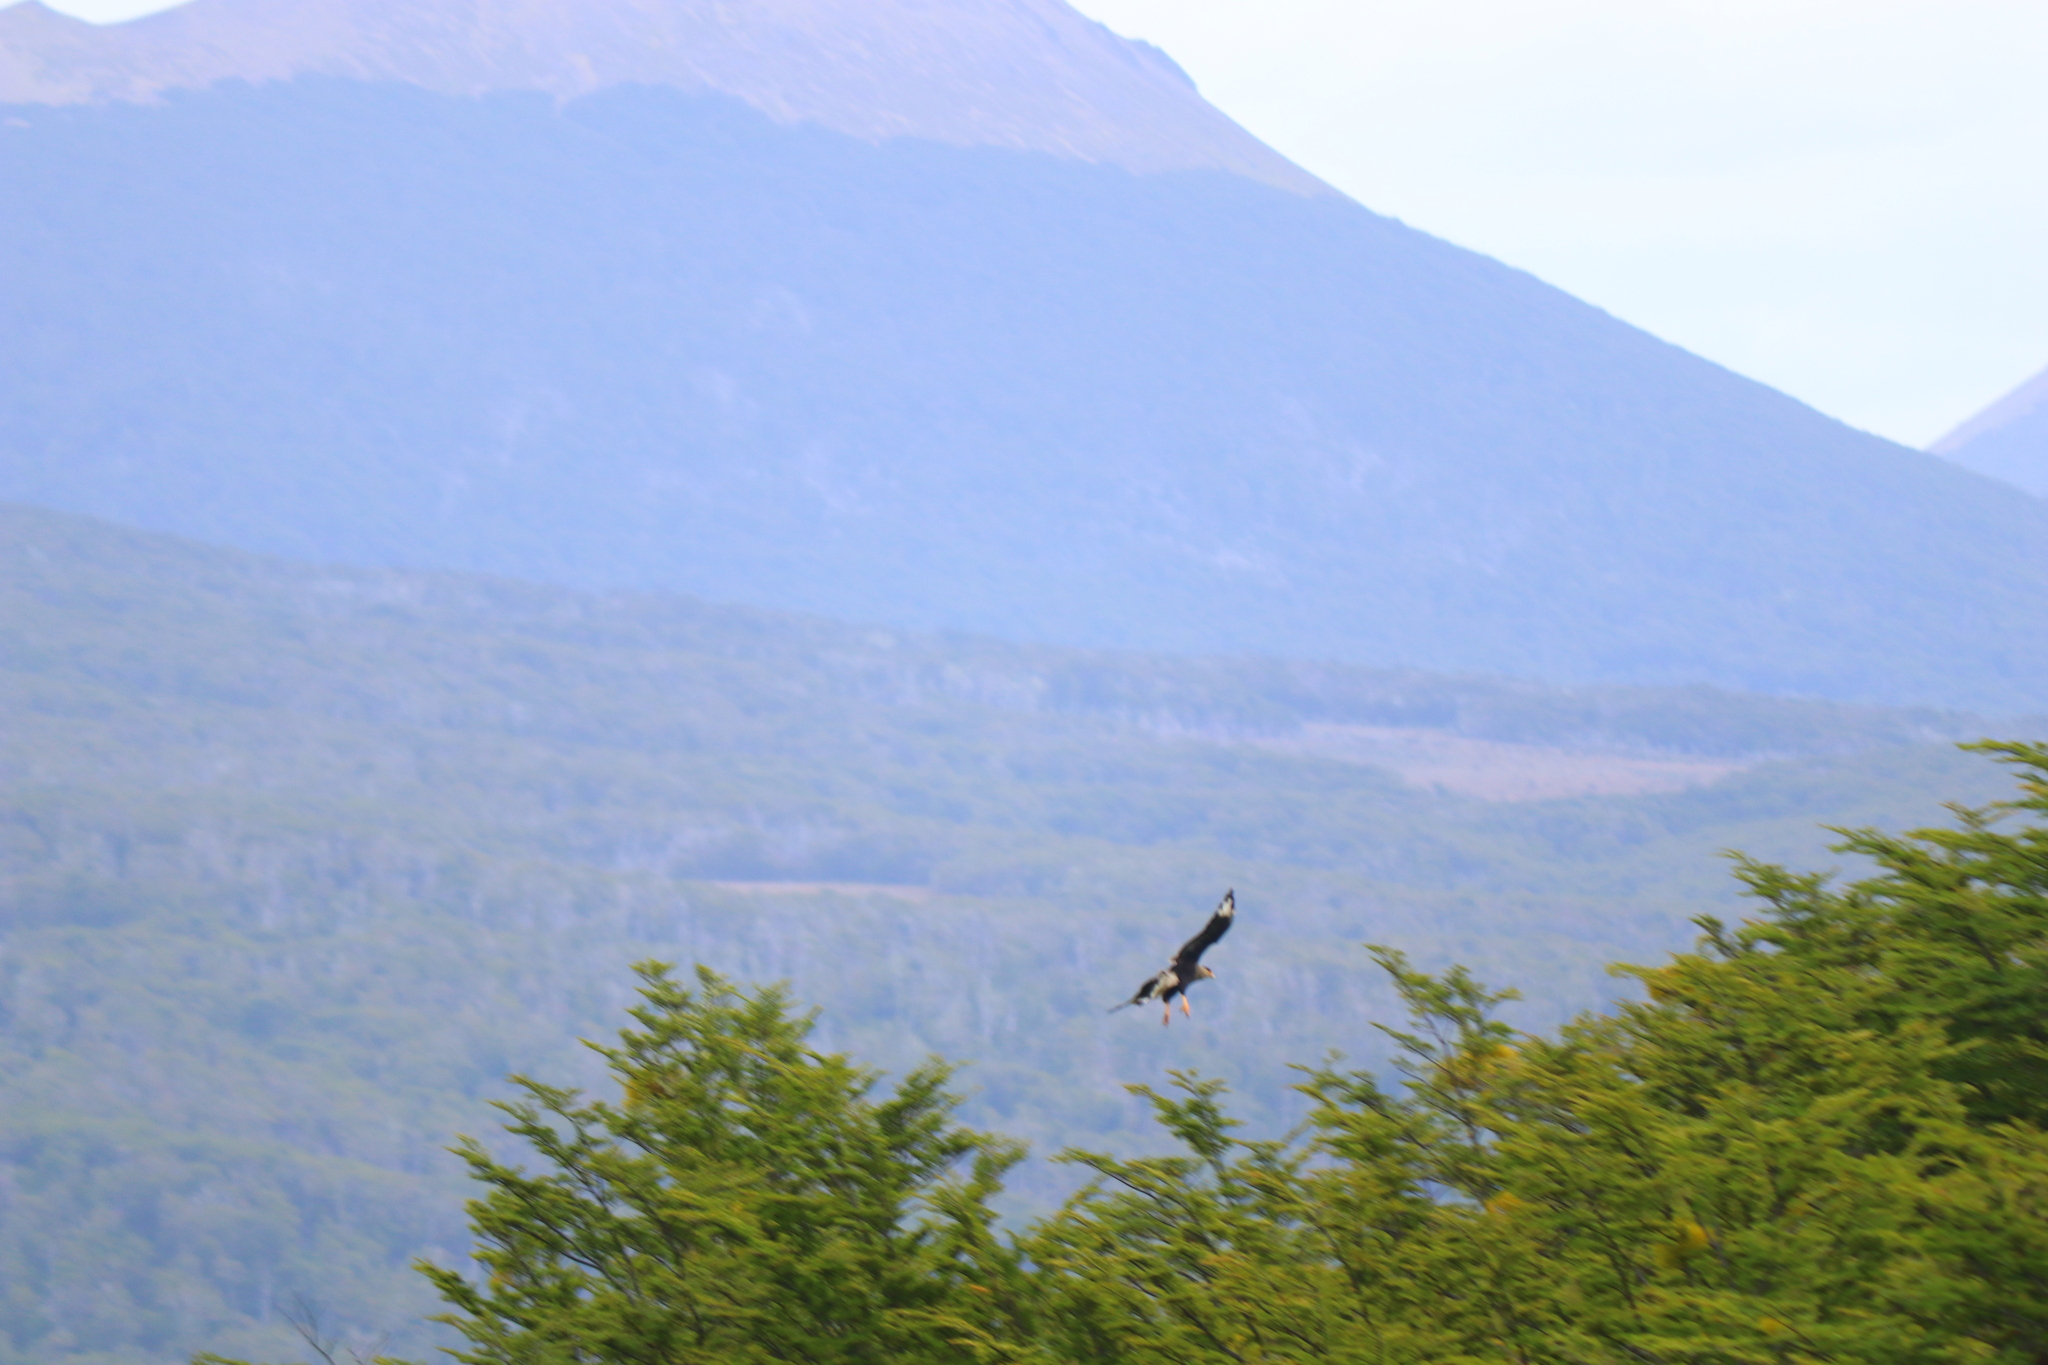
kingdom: Animalia
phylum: Chordata
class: Aves
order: Falconiformes
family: Falconidae
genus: Caracara
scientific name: Caracara plancus
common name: Southern caracara
